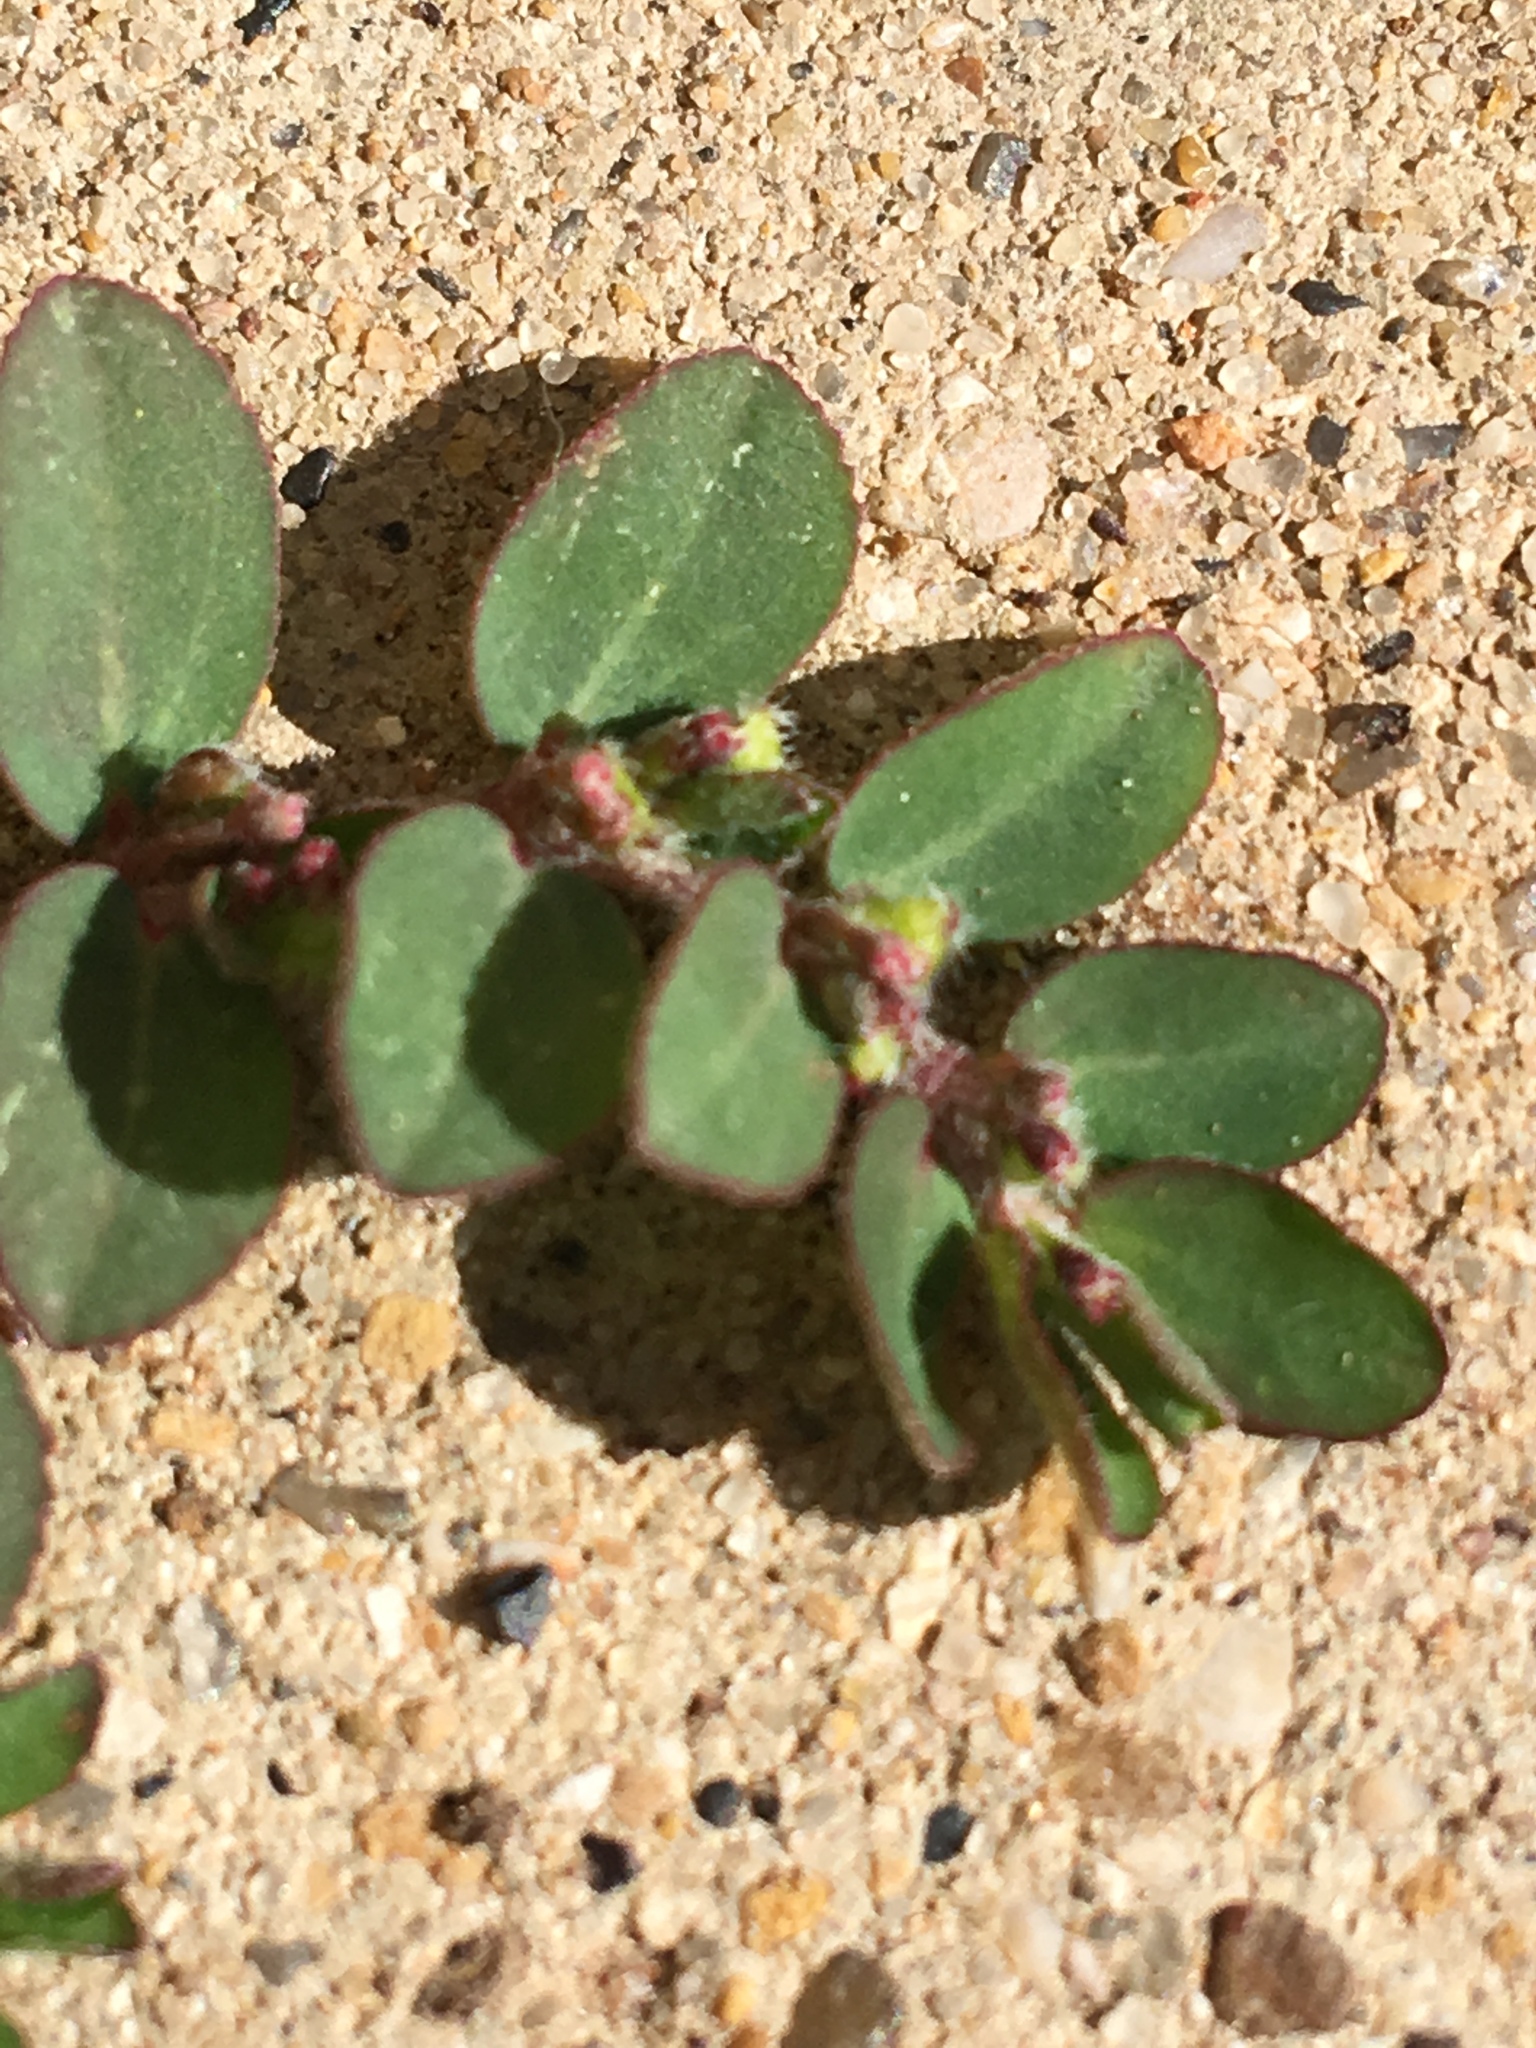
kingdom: Plantae
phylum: Tracheophyta
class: Magnoliopsida
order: Malpighiales
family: Euphorbiaceae
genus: Euphorbia
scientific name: Euphorbia prostrata
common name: Prostrate sandmat
